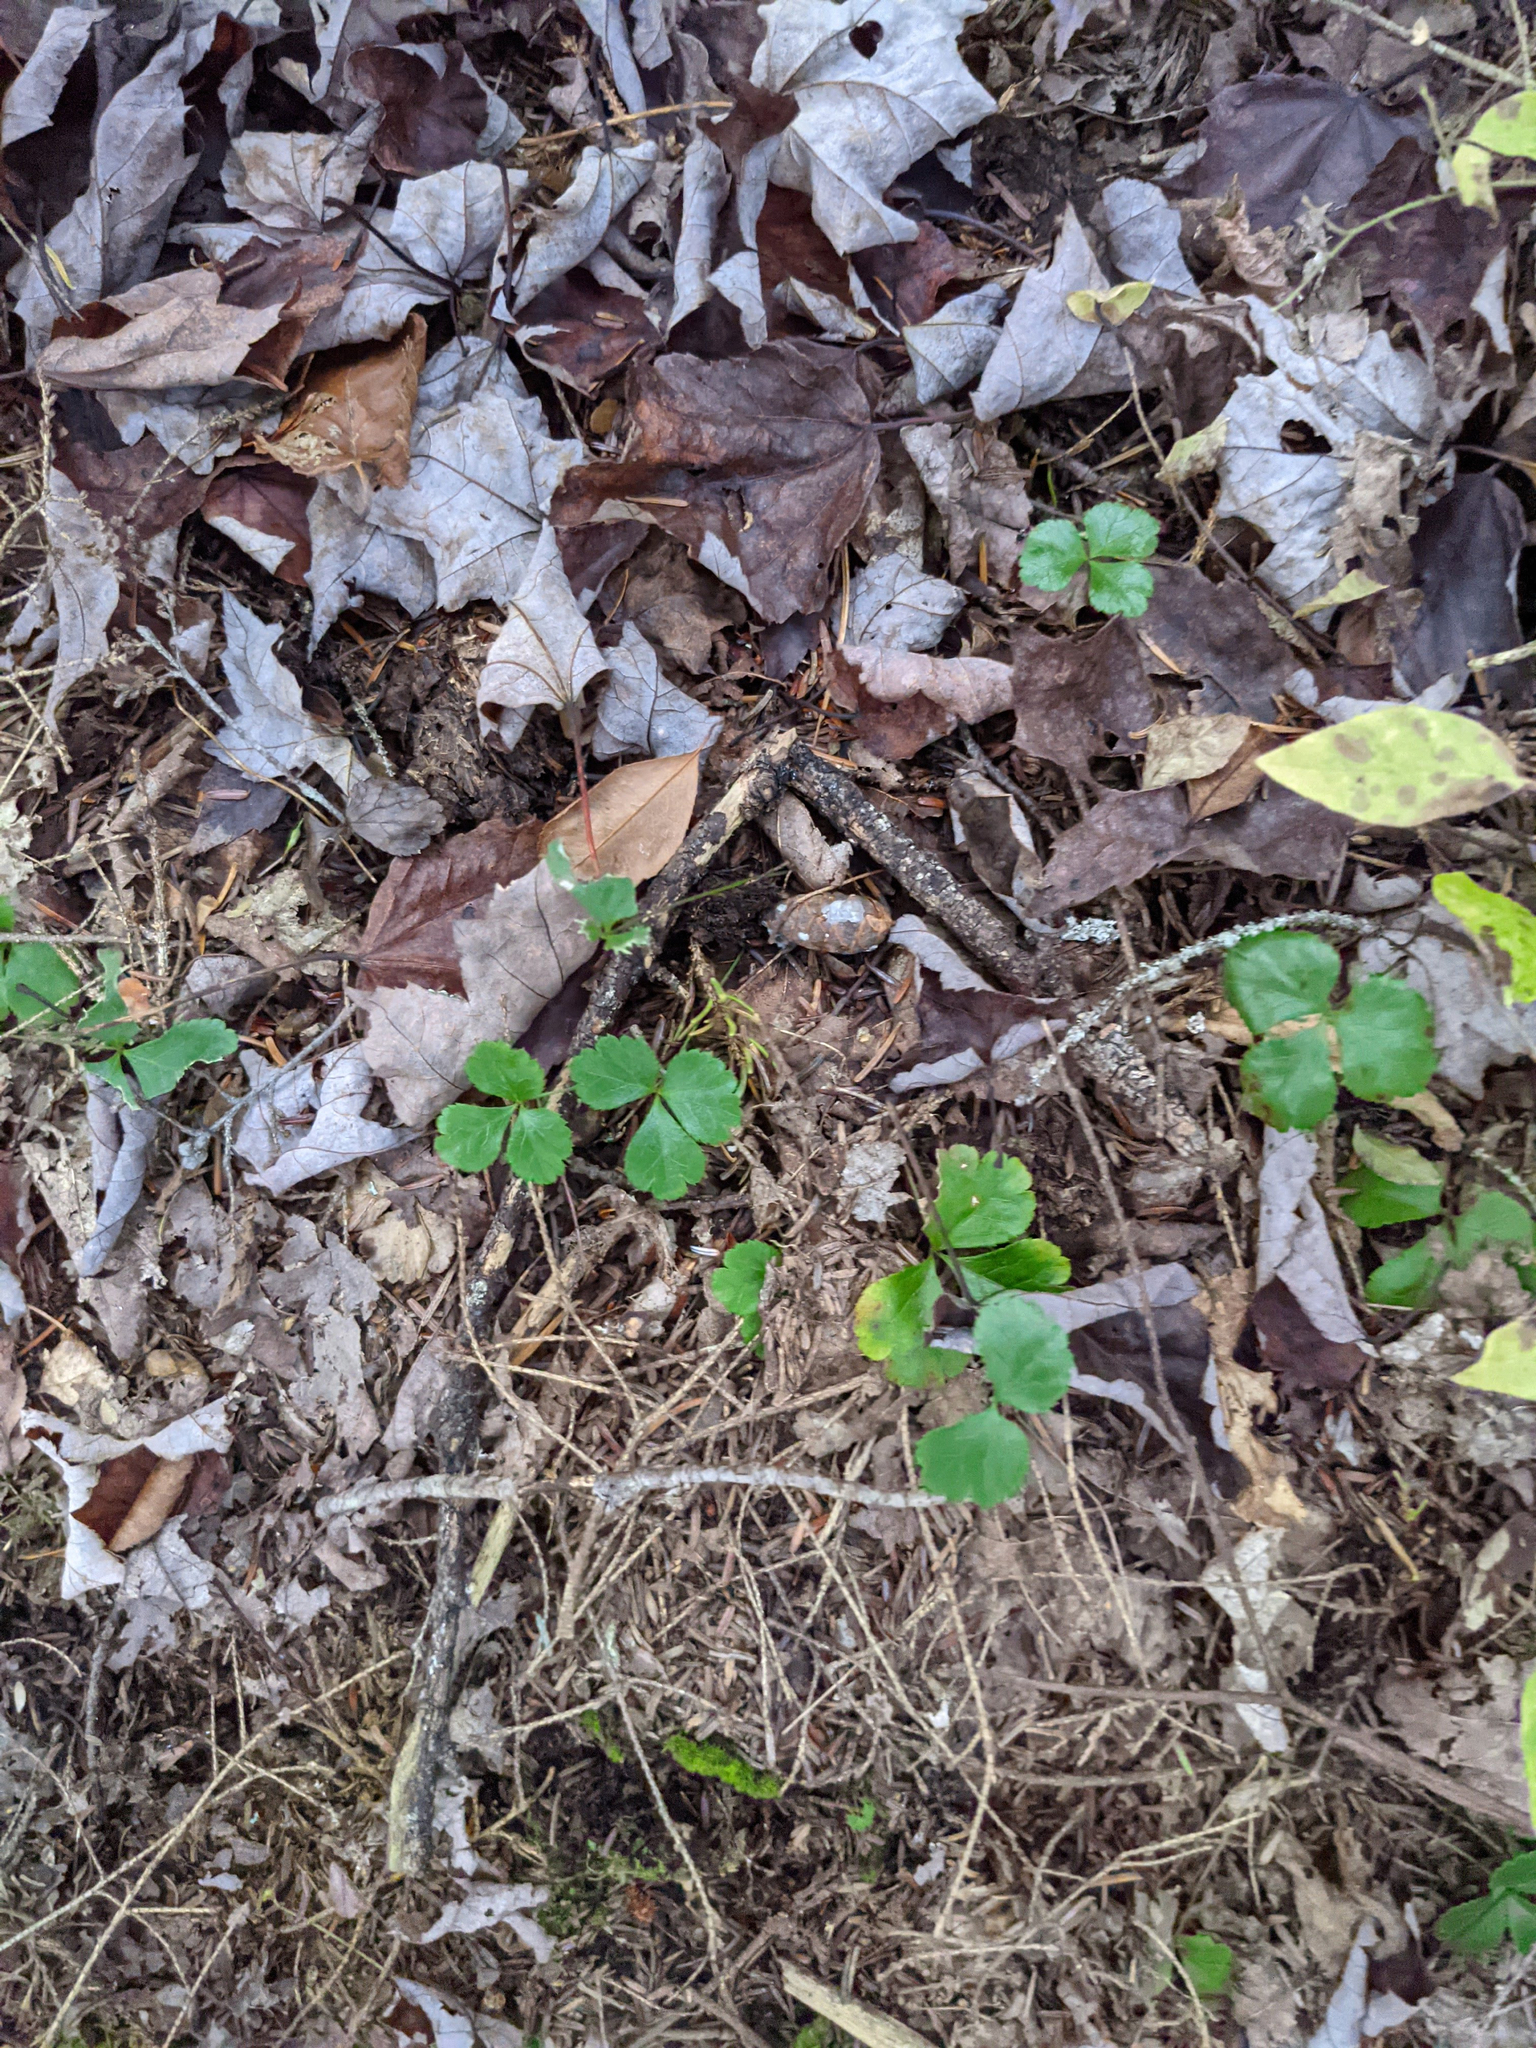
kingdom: Plantae
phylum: Tracheophyta
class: Magnoliopsida
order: Ranunculales
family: Ranunculaceae
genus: Coptis
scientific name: Coptis trifolia
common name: Canker-root
